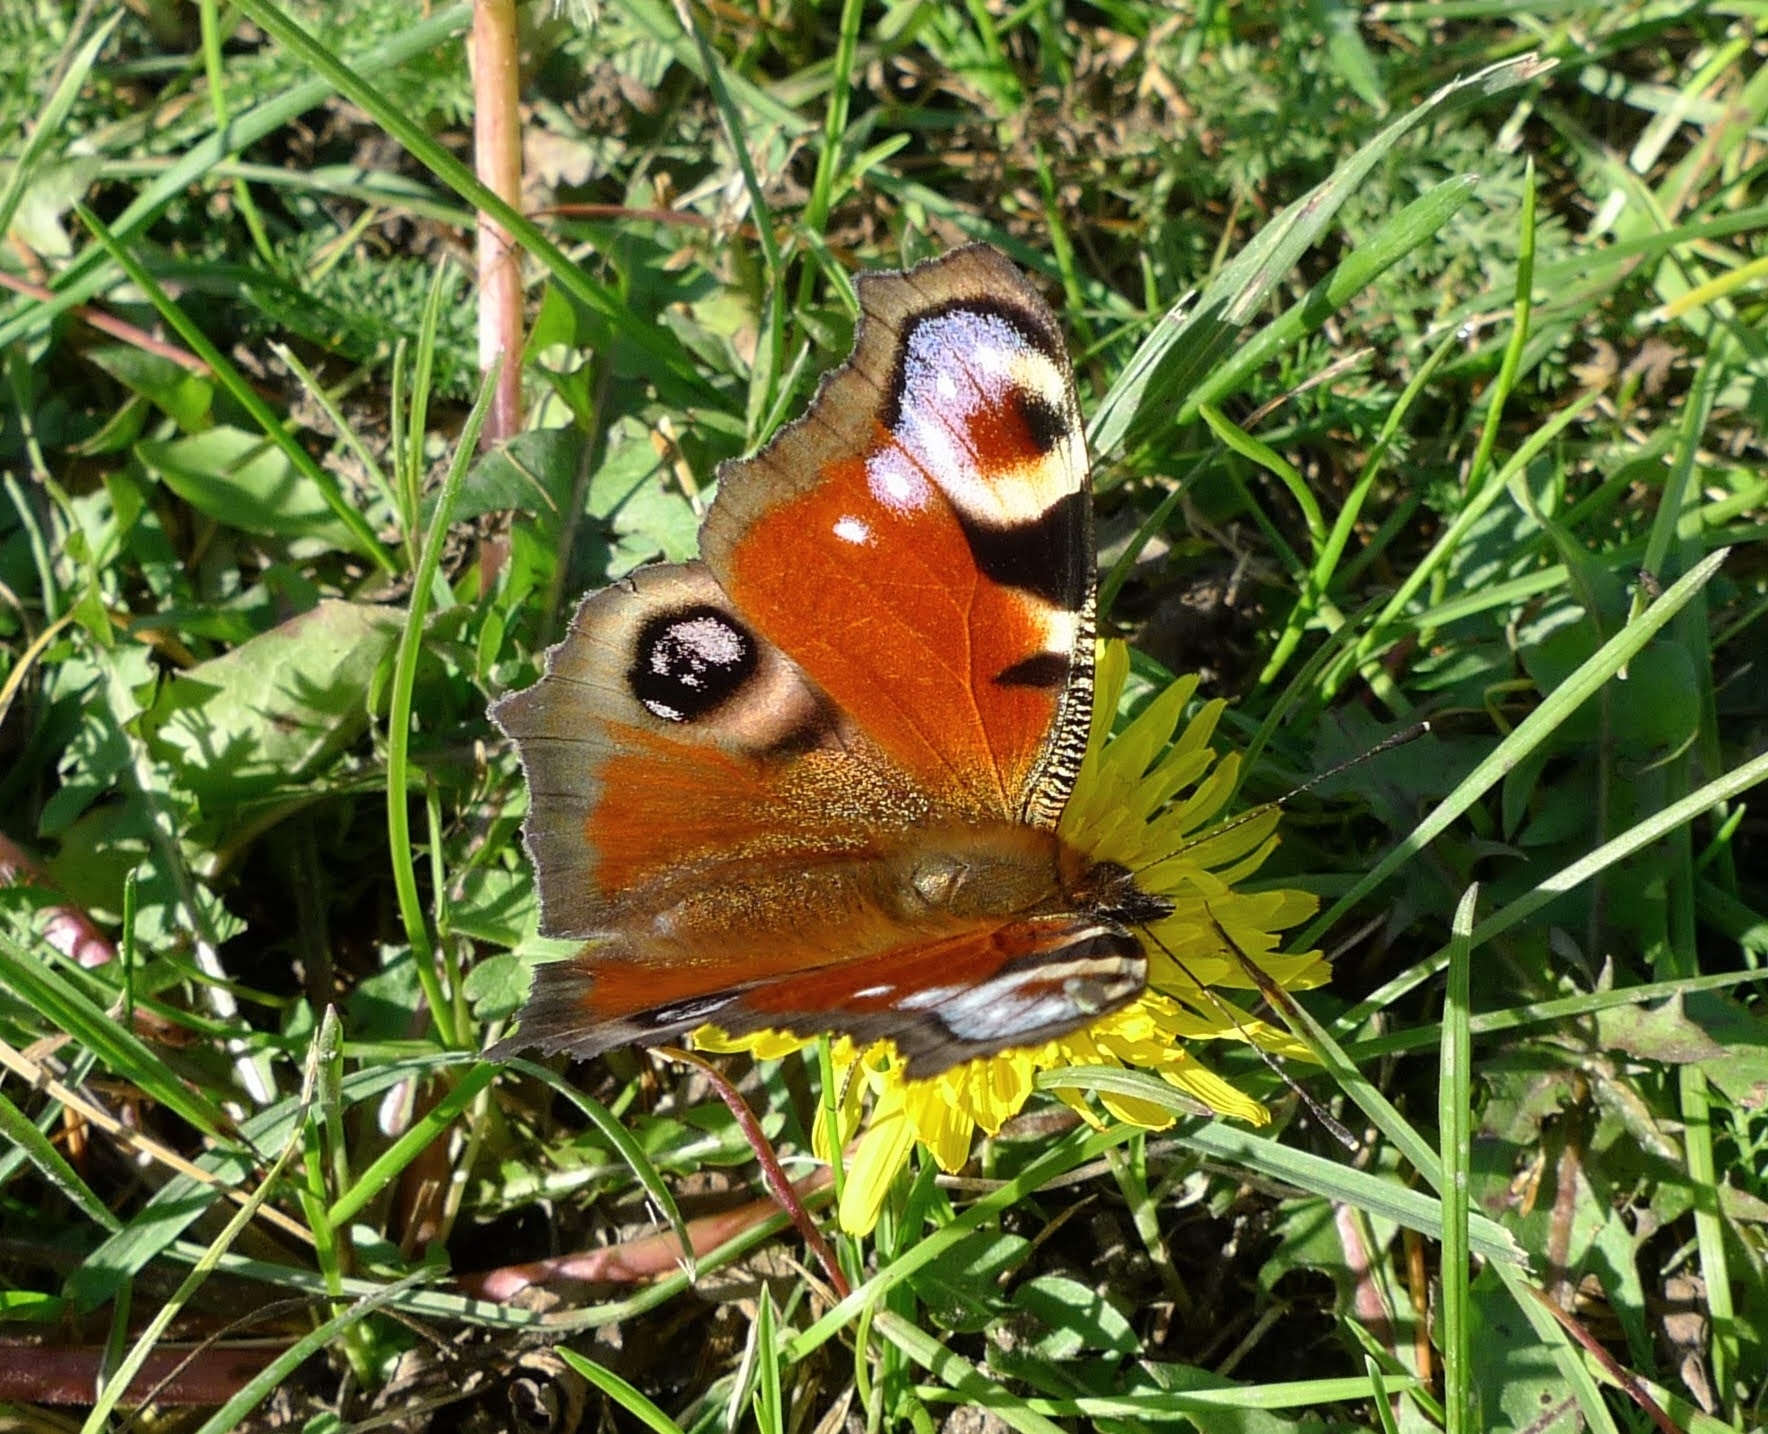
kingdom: Animalia
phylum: Arthropoda
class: Insecta
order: Lepidoptera
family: Nymphalidae
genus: Aglais
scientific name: Aglais io
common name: Peacock
